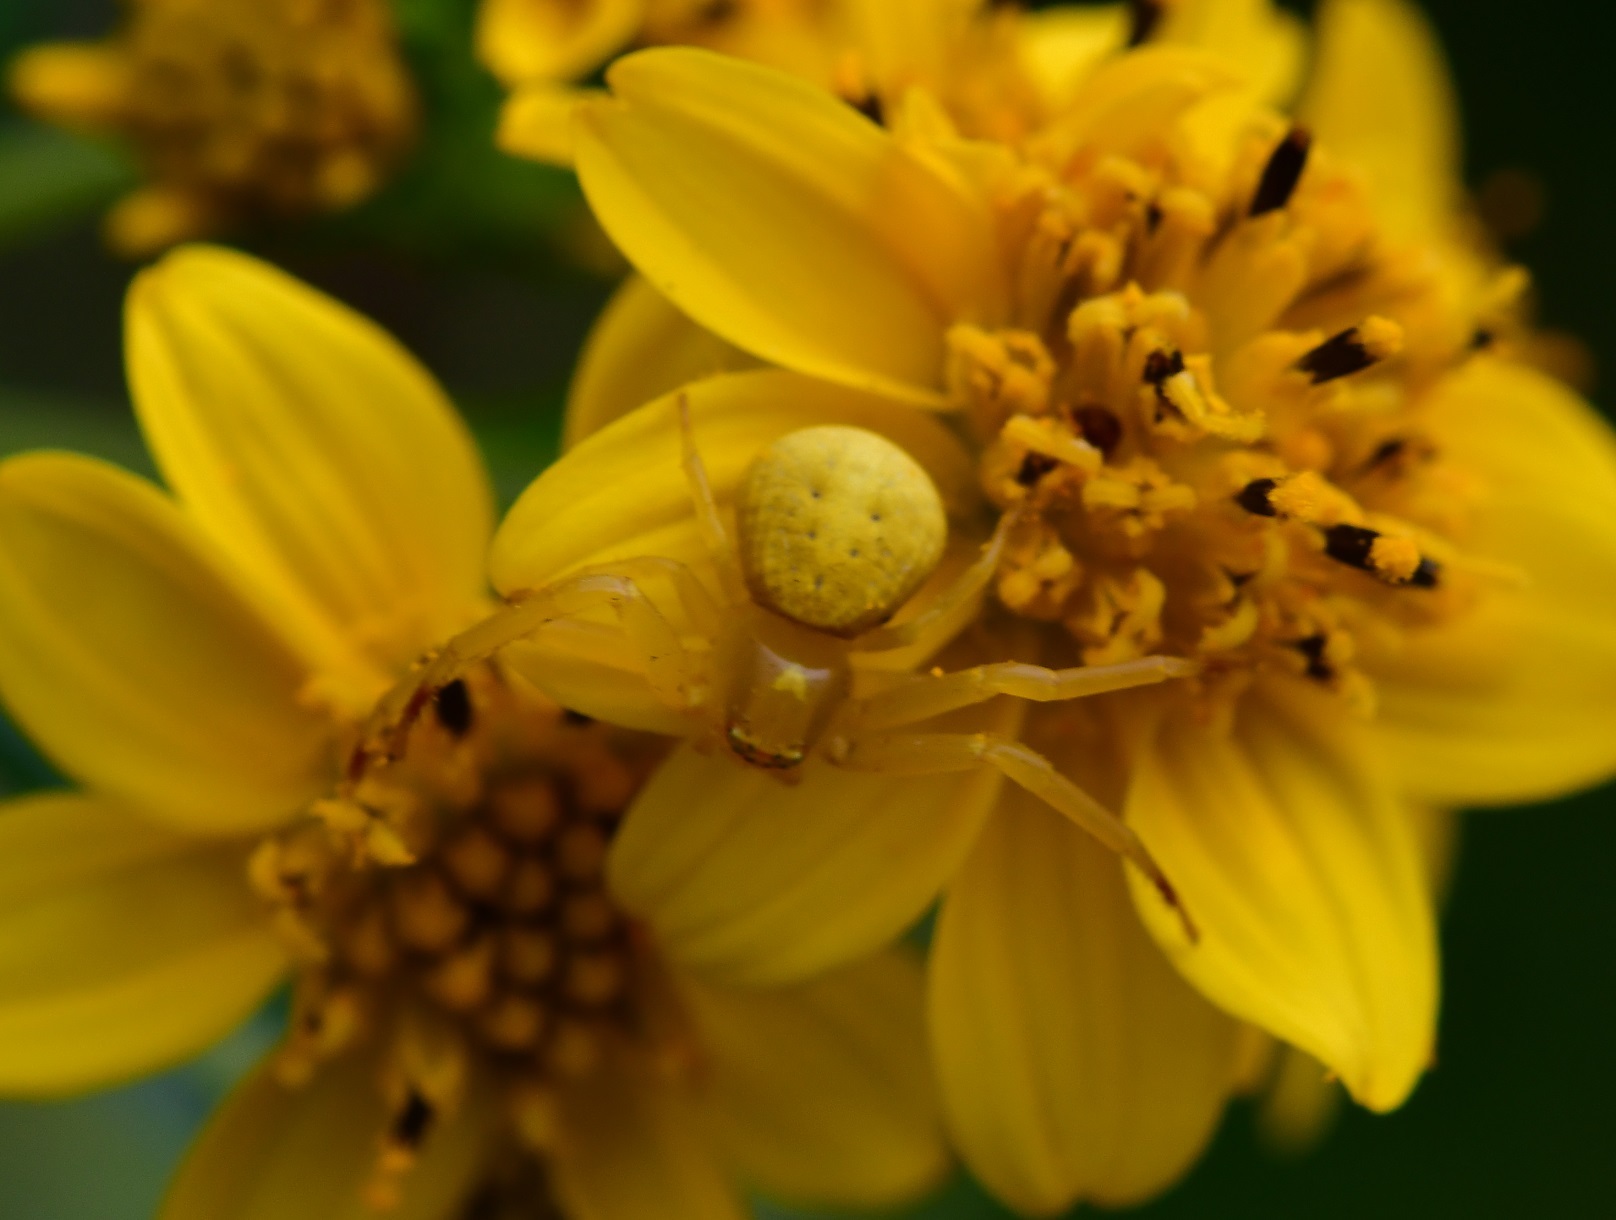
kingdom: Plantae
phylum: Tracheophyta
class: Magnoliopsida
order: Asterales
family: Asteraceae
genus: Perymenium
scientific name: Perymenium ghiesbreghtii
